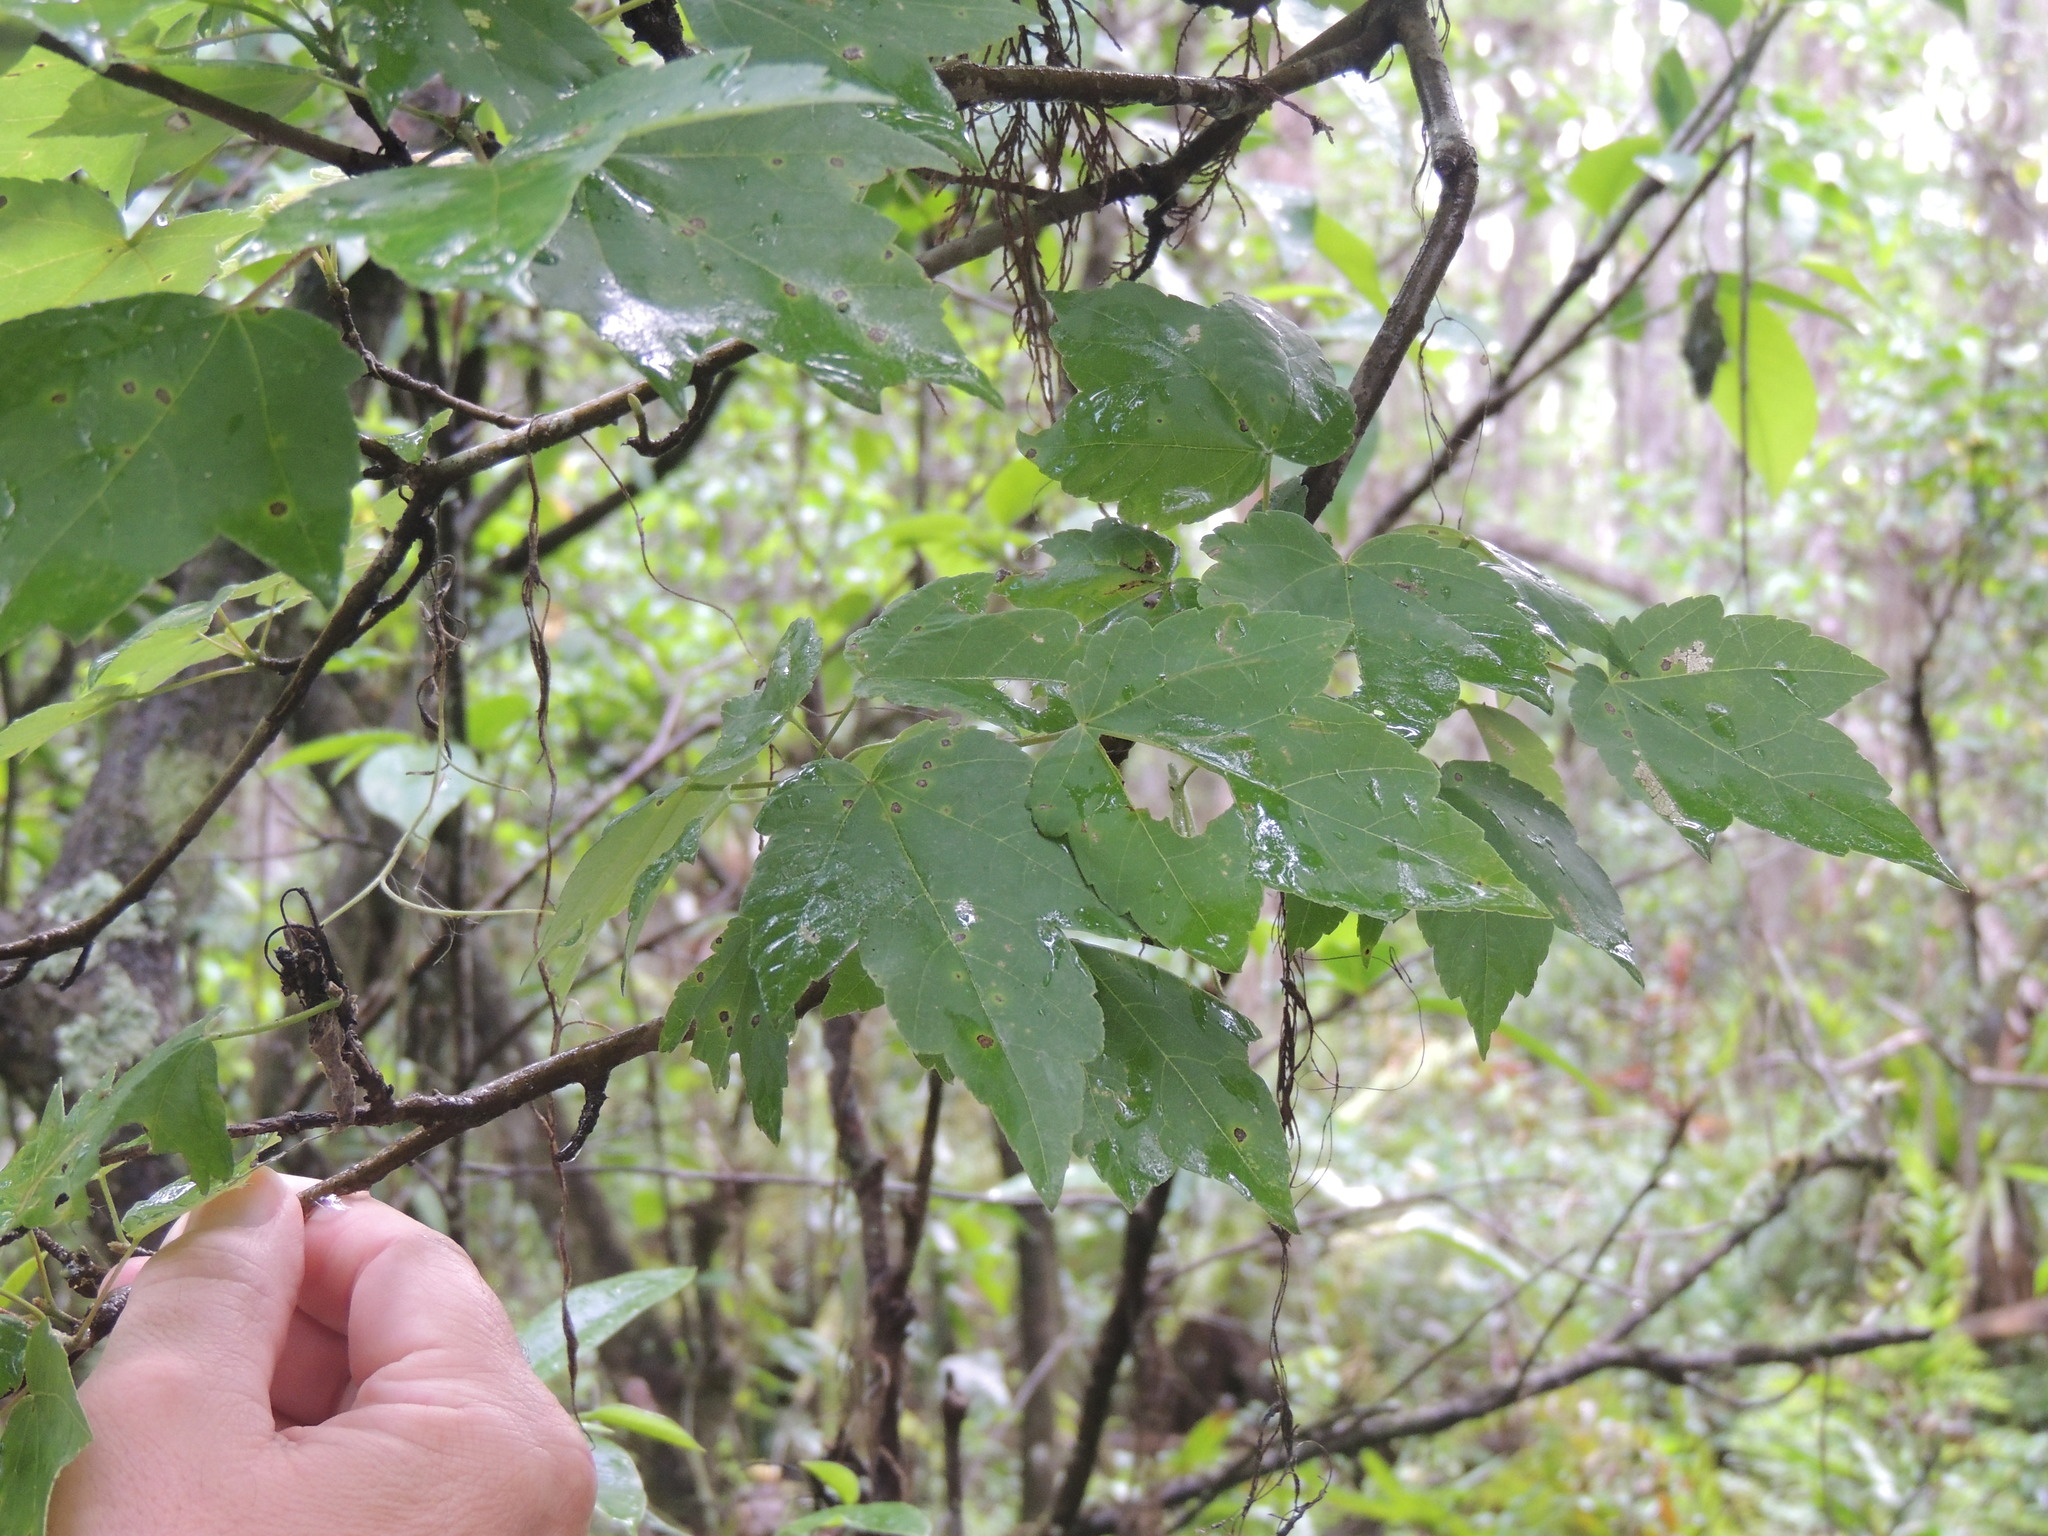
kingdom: Plantae
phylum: Tracheophyta
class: Magnoliopsida
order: Sapindales
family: Sapindaceae
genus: Acer
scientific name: Acer rubrum
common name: Red maple
